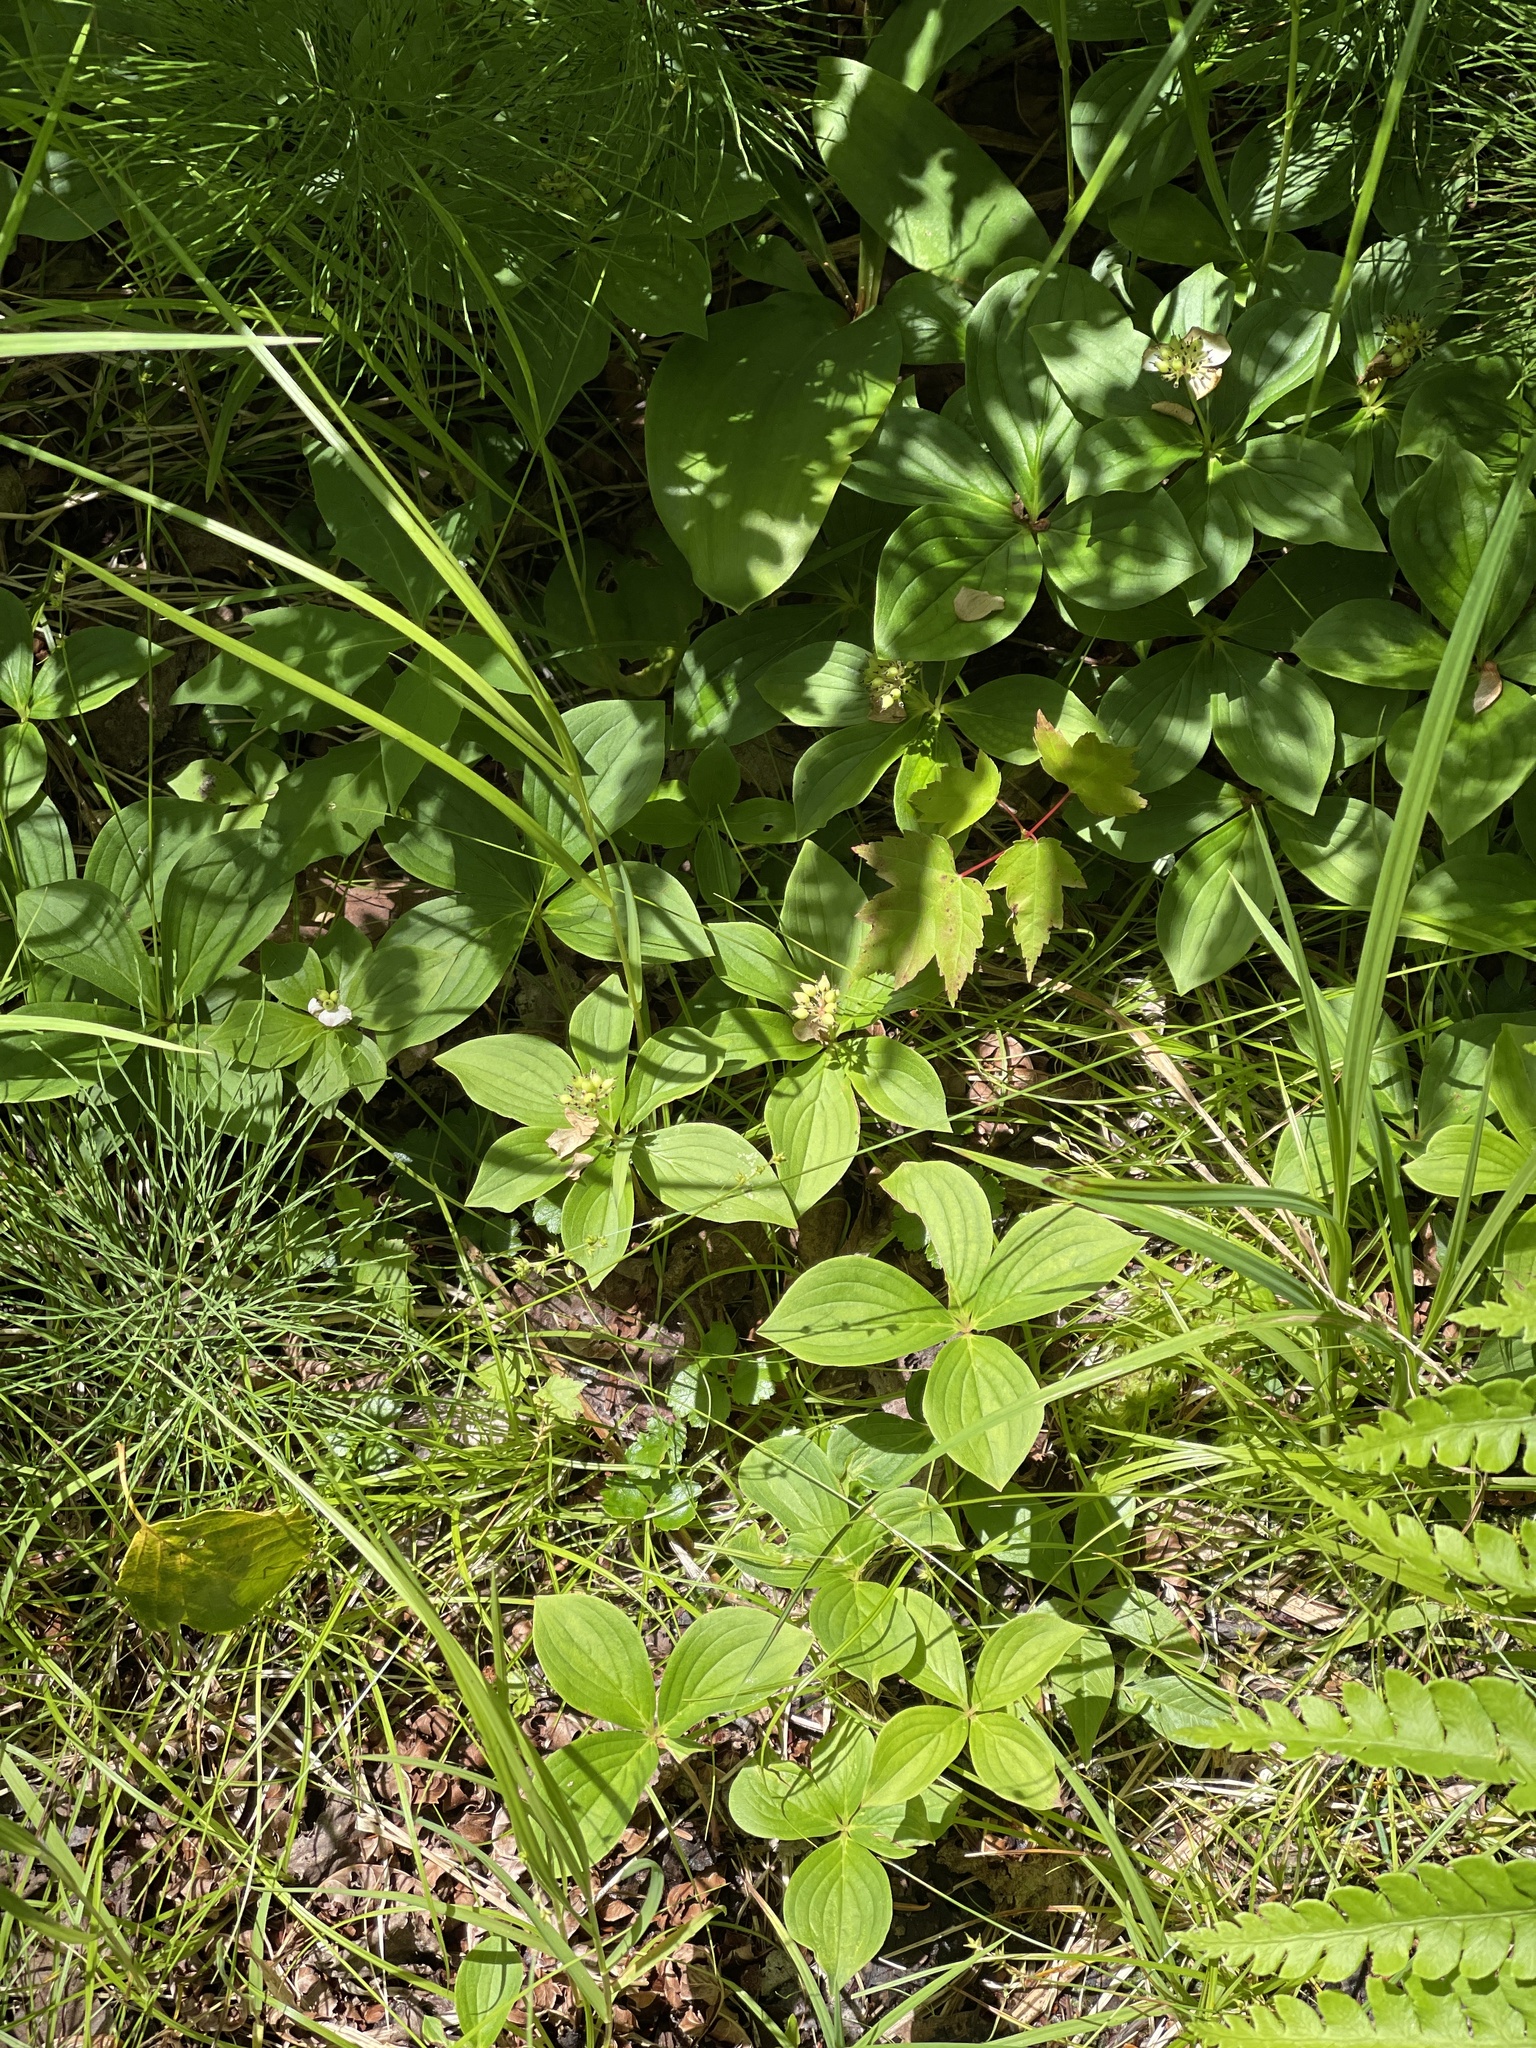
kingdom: Plantae
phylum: Tracheophyta
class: Magnoliopsida
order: Cornales
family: Cornaceae
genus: Cornus
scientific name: Cornus canadensis
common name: Creeping dogwood
